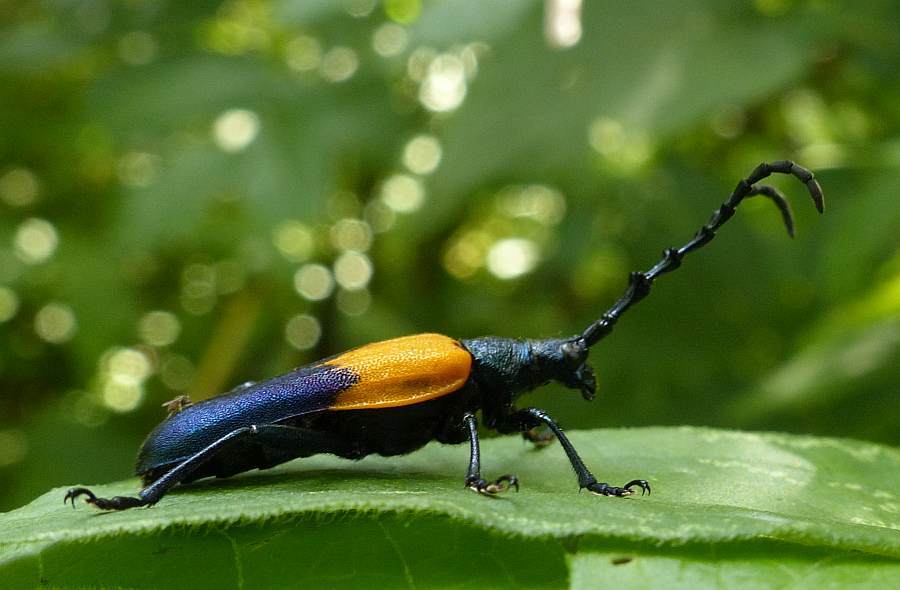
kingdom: Animalia
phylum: Arthropoda
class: Insecta
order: Coleoptera
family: Cerambycidae
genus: Desmocerus
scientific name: Desmocerus palliatus
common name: Eastern elderberry borer
